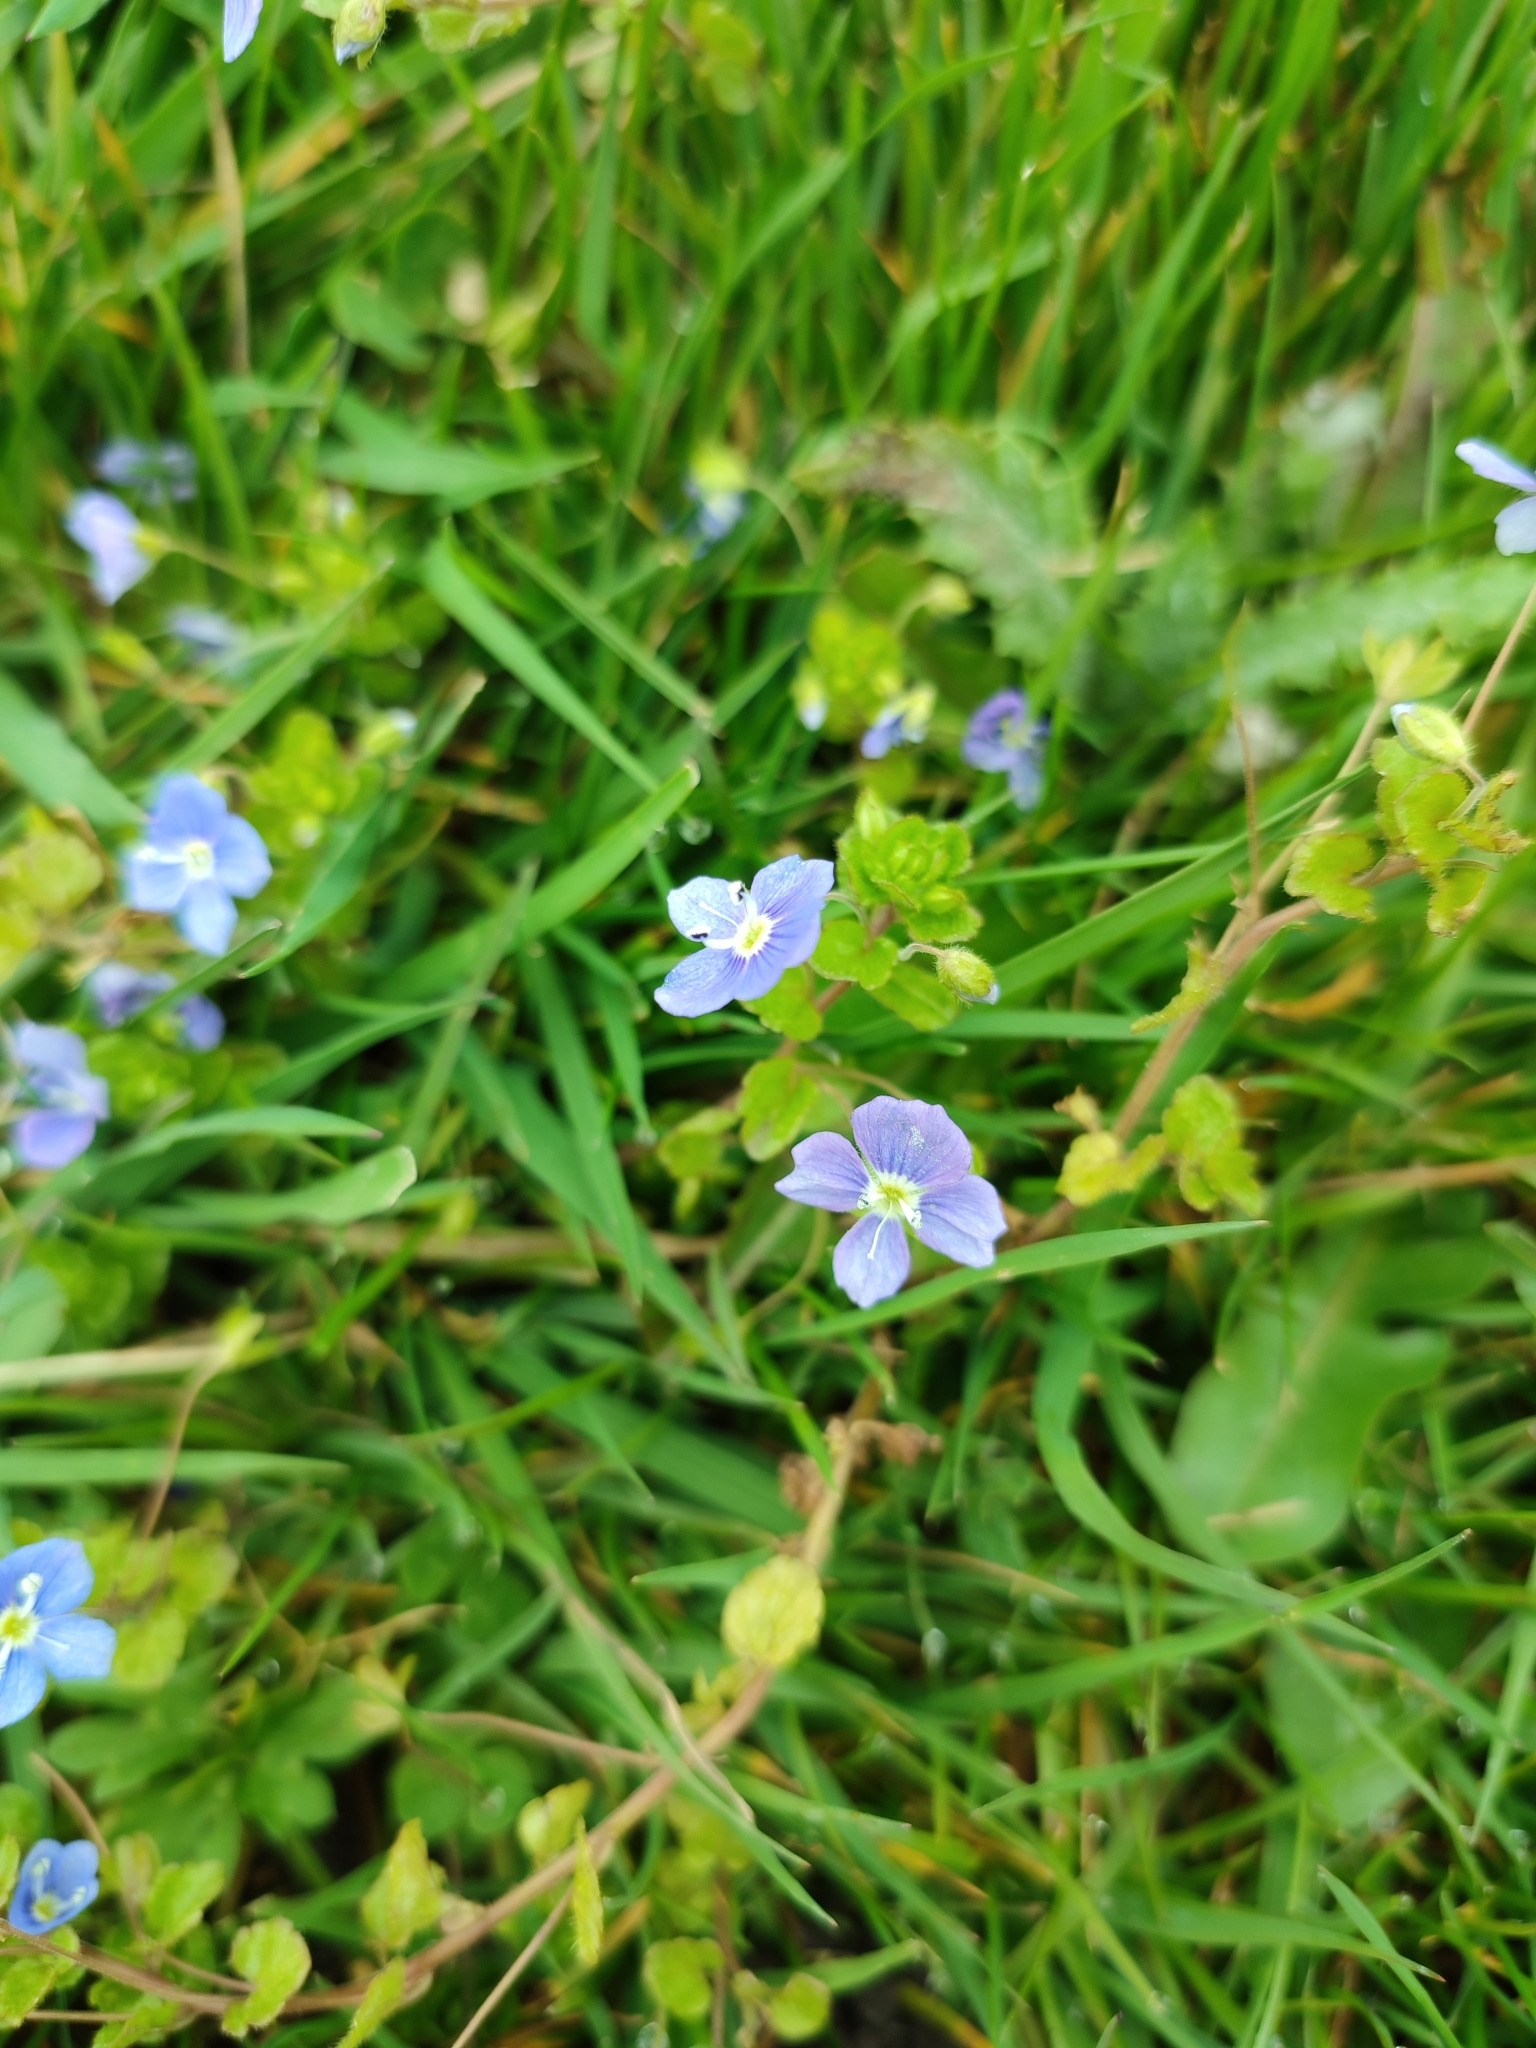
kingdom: Plantae
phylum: Tracheophyta
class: Magnoliopsida
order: Lamiales
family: Plantaginaceae
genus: Veronica
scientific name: Veronica filiformis
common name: Slender speedwell
